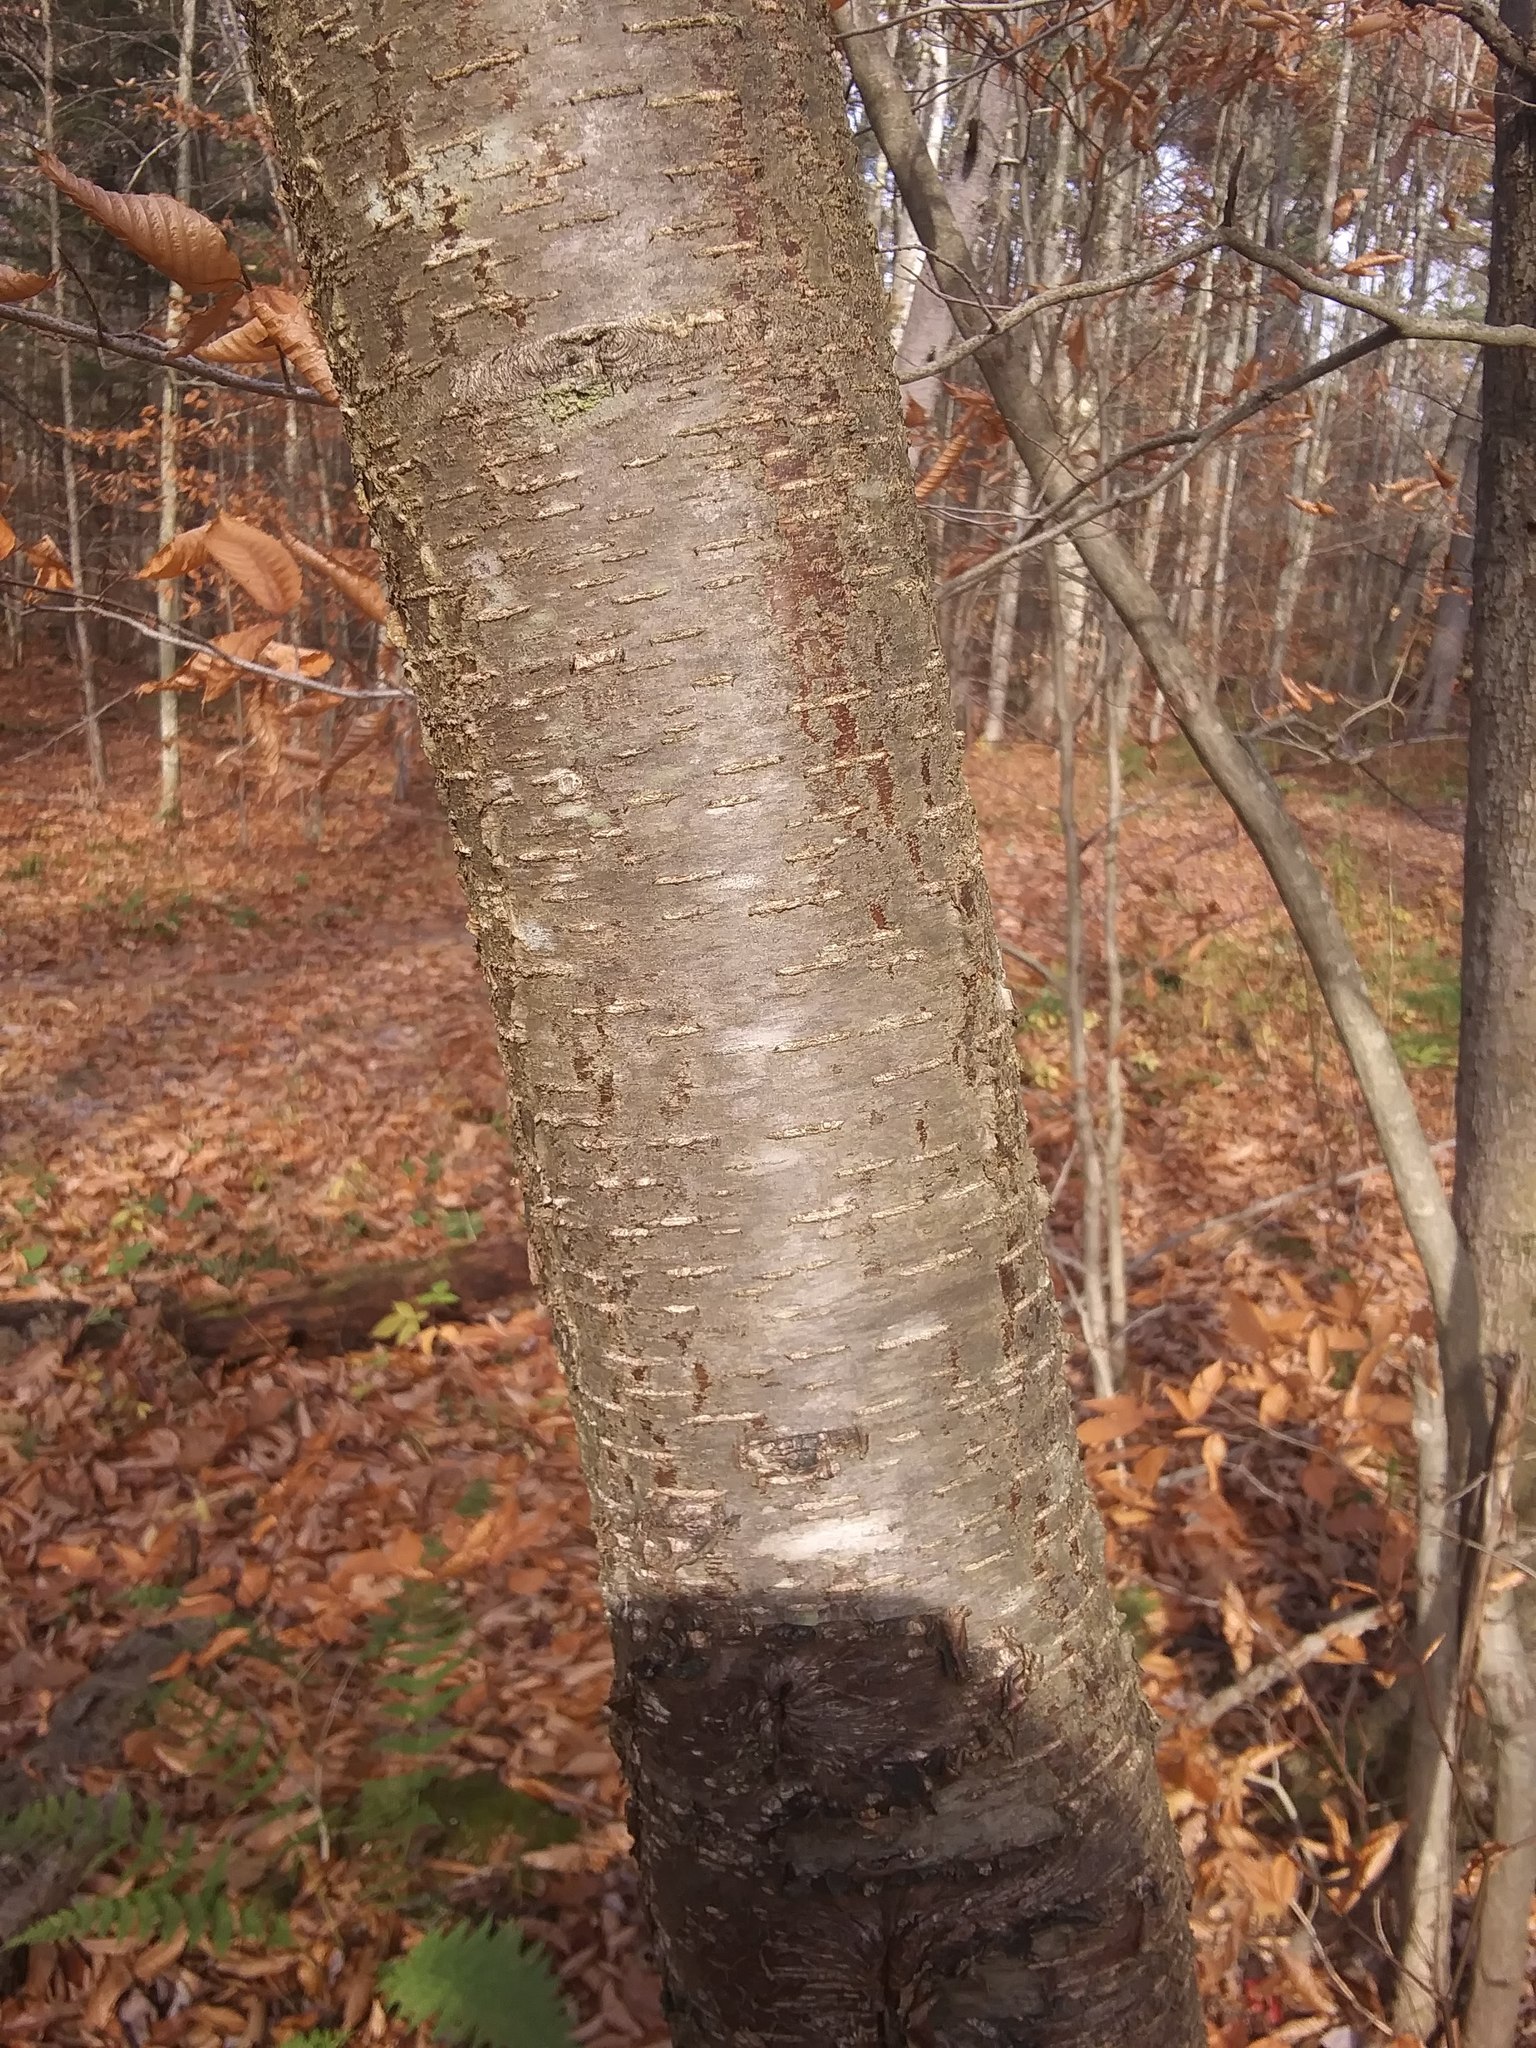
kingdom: Plantae
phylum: Tracheophyta
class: Magnoliopsida
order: Fagales
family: Betulaceae
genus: Betula
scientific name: Betula lenta
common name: Black birch
